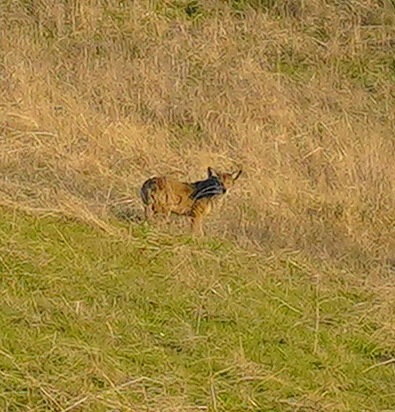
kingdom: Animalia
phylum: Chordata
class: Mammalia
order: Carnivora
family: Canidae
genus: Canis
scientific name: Canis latrans
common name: Coyote
